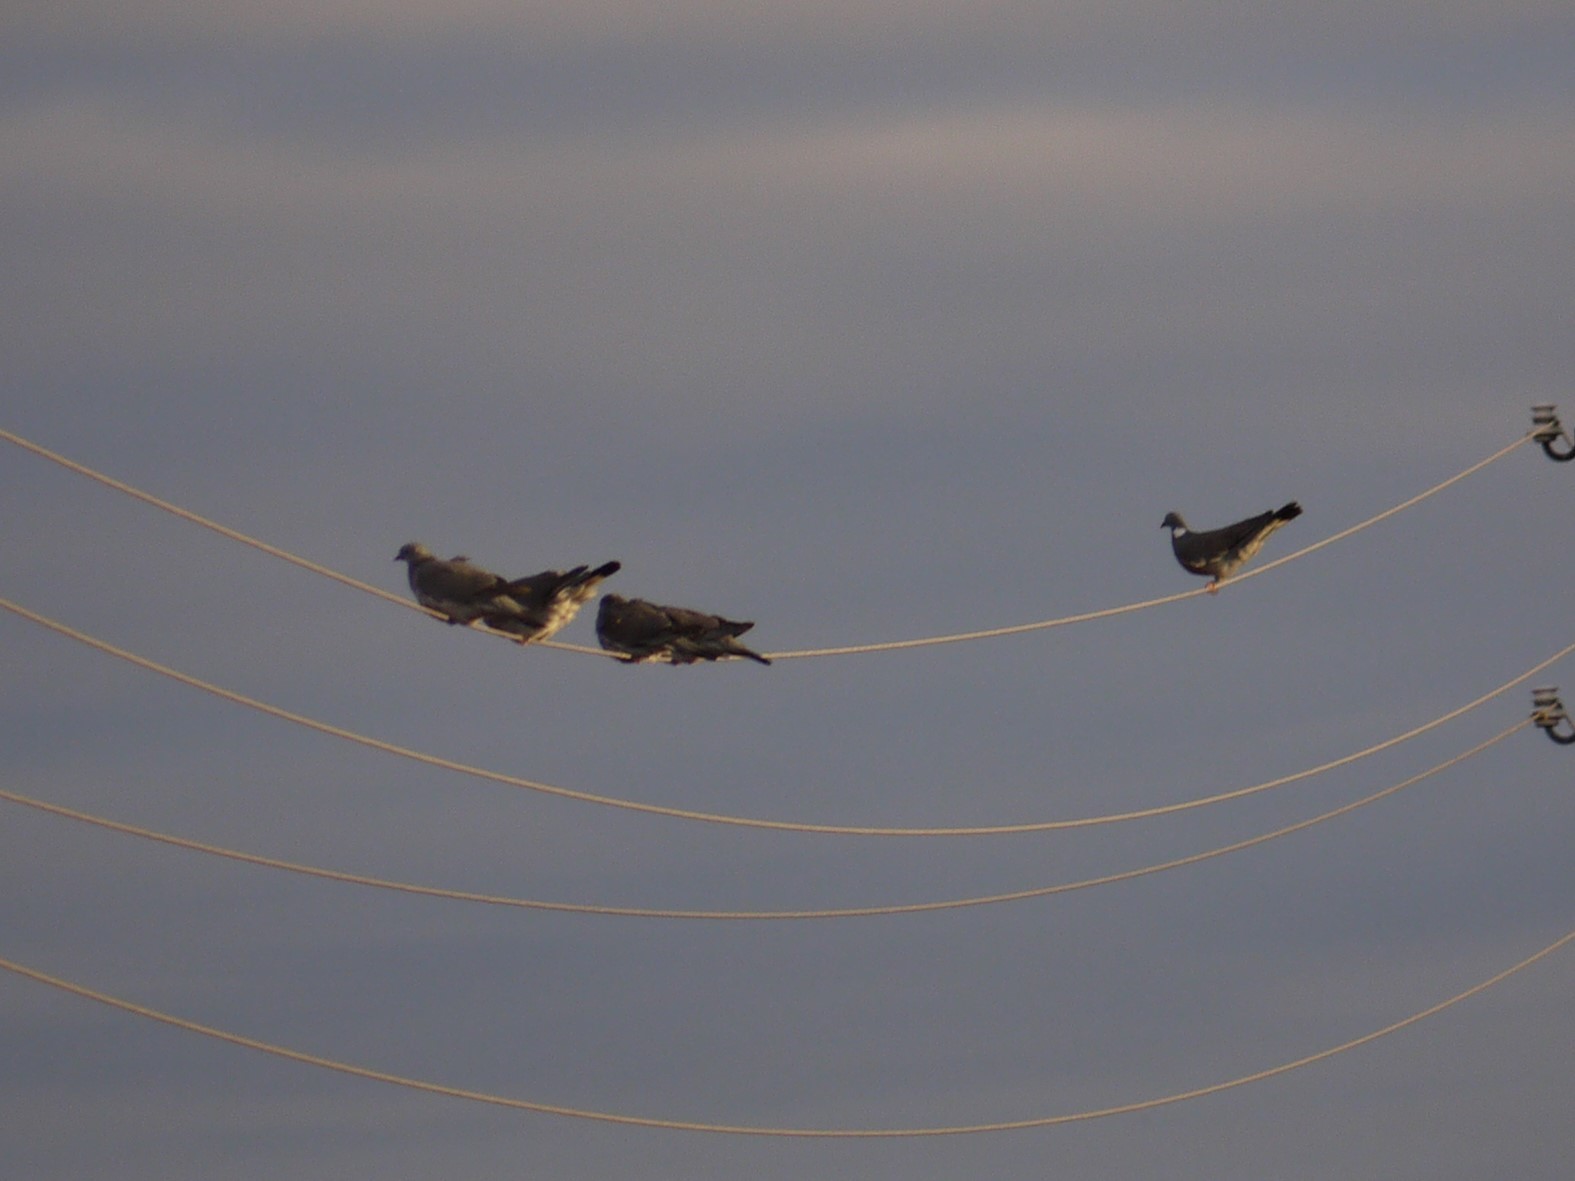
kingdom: Animalia
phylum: Chordata
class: Aves
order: Columbiformes
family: Columbidae
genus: Columba
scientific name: Columba palumbus
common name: Common wood pigeon
